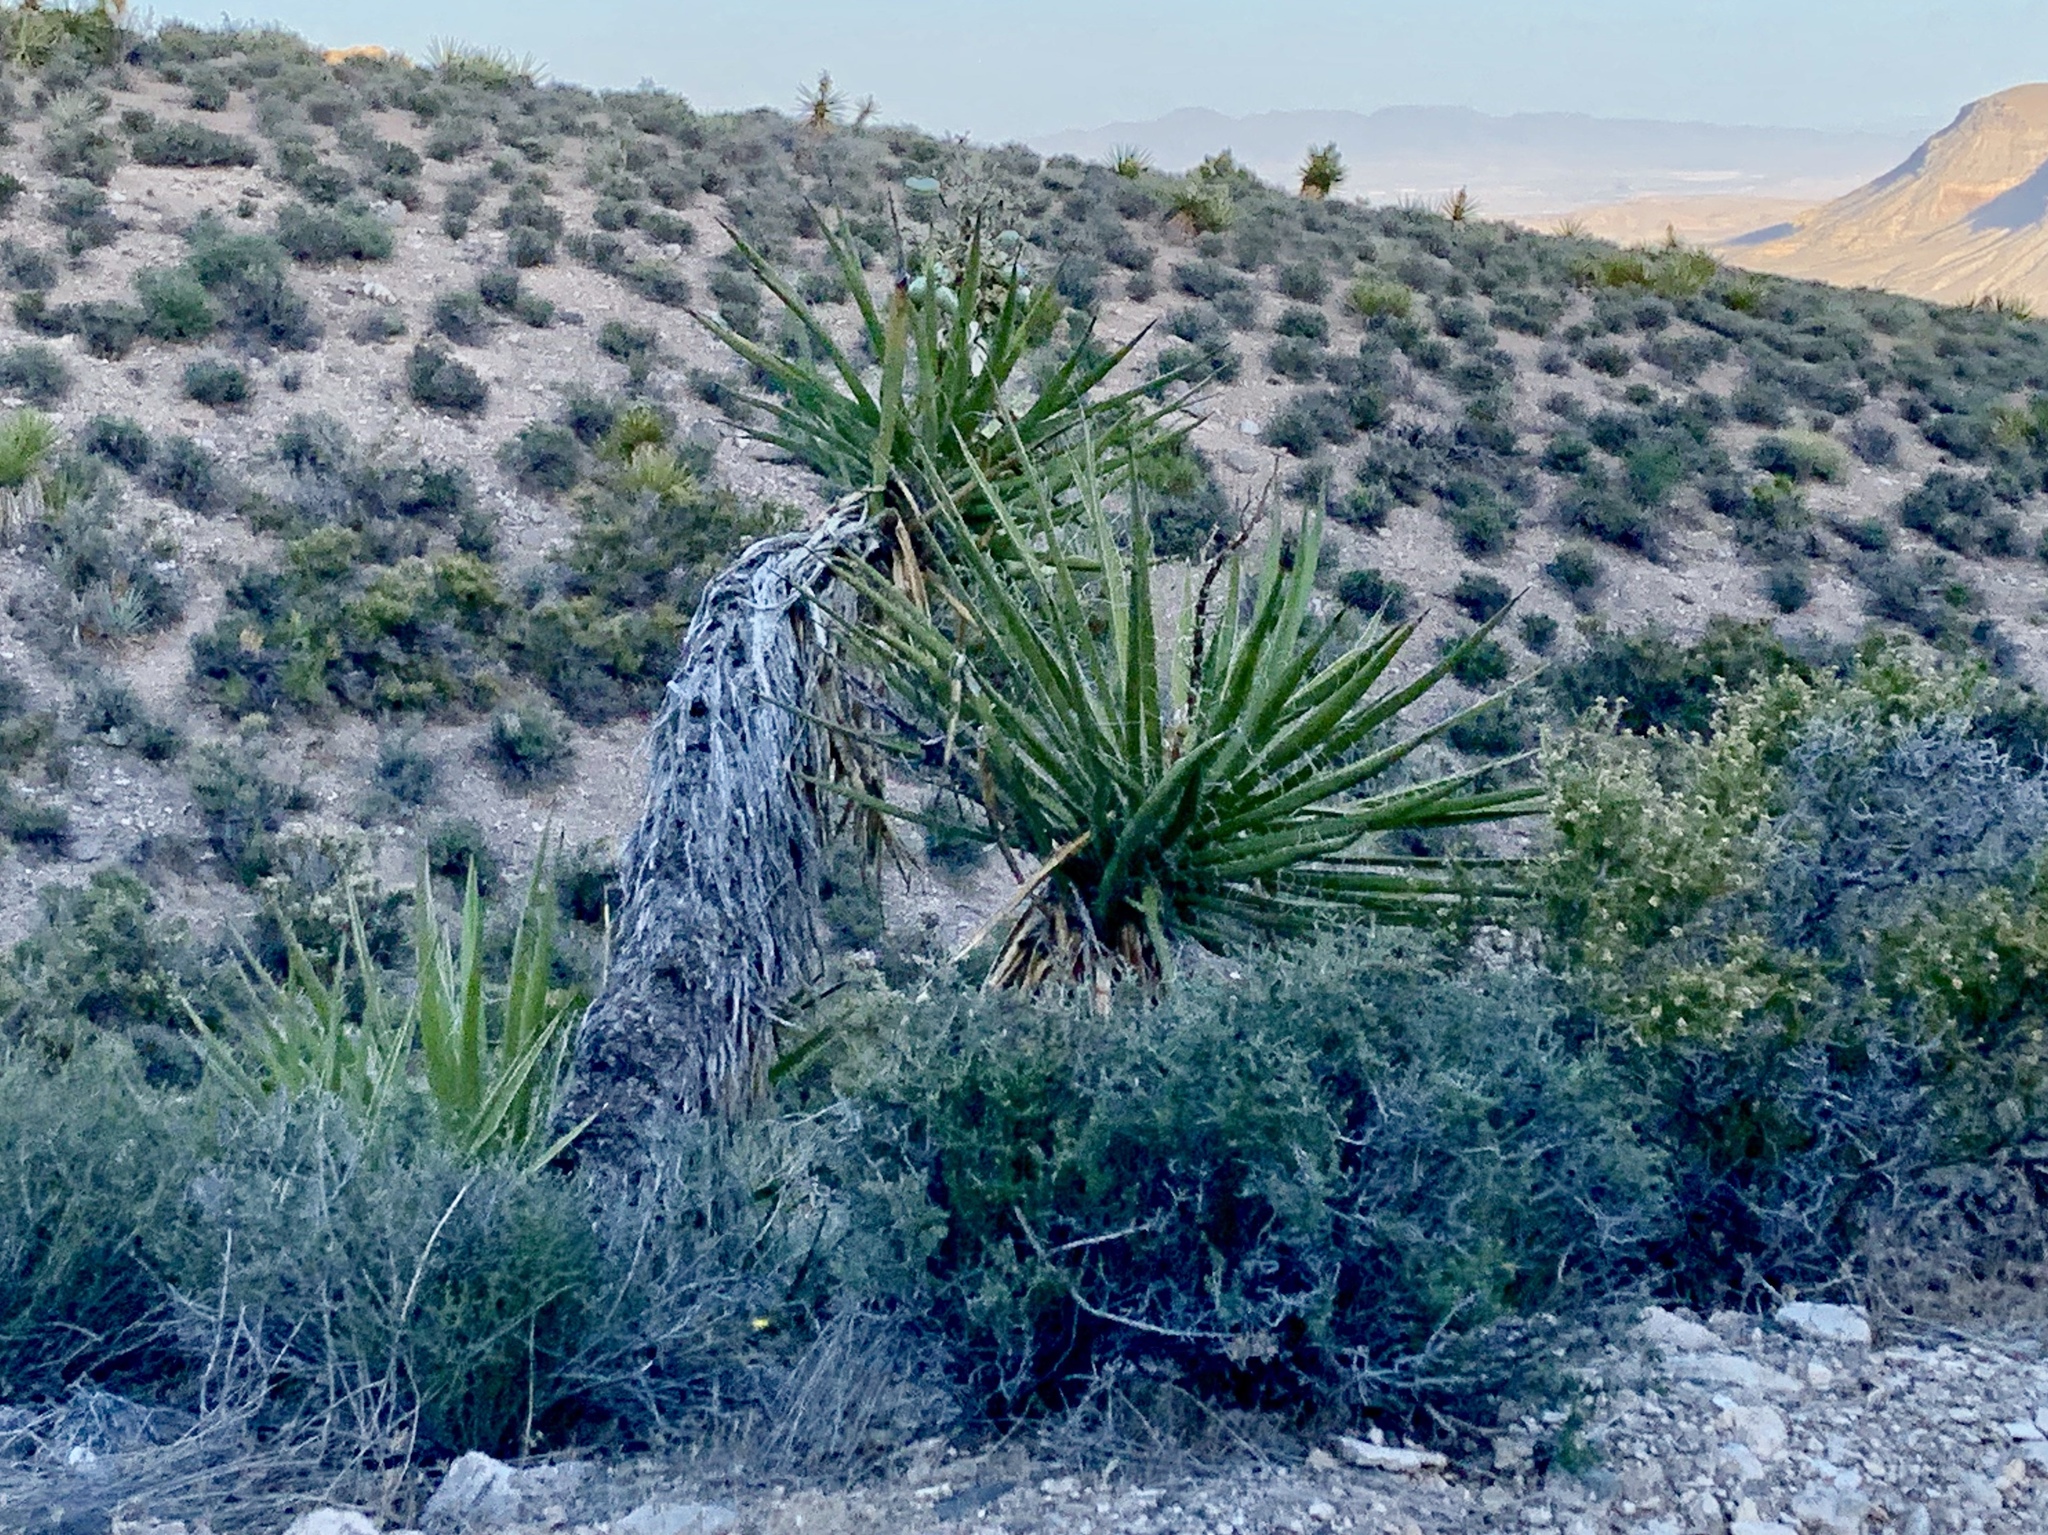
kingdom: Plantae
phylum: Tracheophyta
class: Liliopsida
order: Asparagales
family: Asparagaceae
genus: Yucca
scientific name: Yucca schidigera
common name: Mojave yucca
